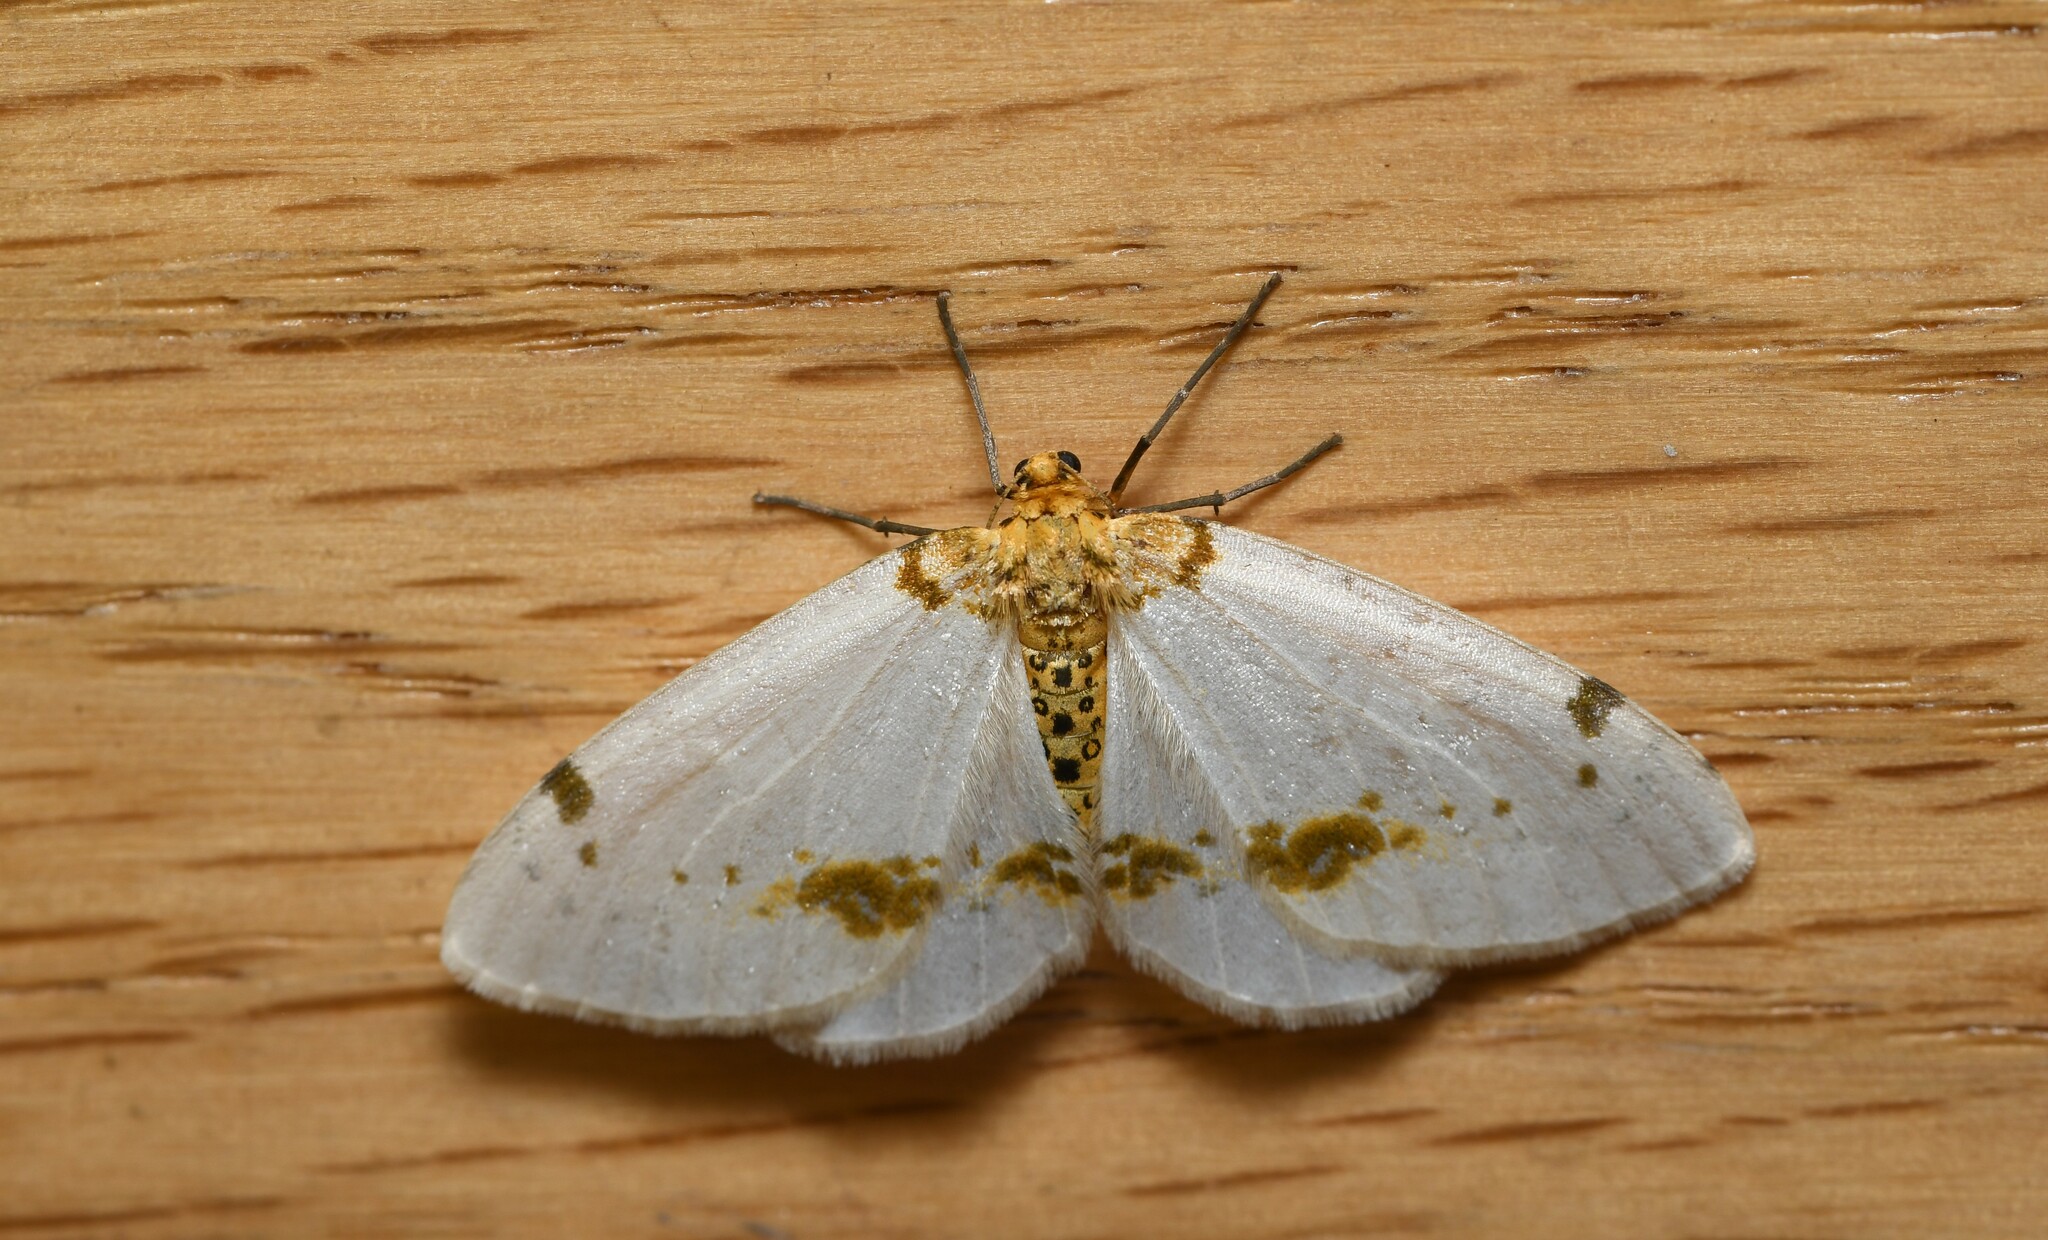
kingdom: Animalia
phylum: Arthropoda
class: Insecta
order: Lepidoptera
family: Geometridae
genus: Abraxas
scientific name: Abraxas pantaria
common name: Light magpie
